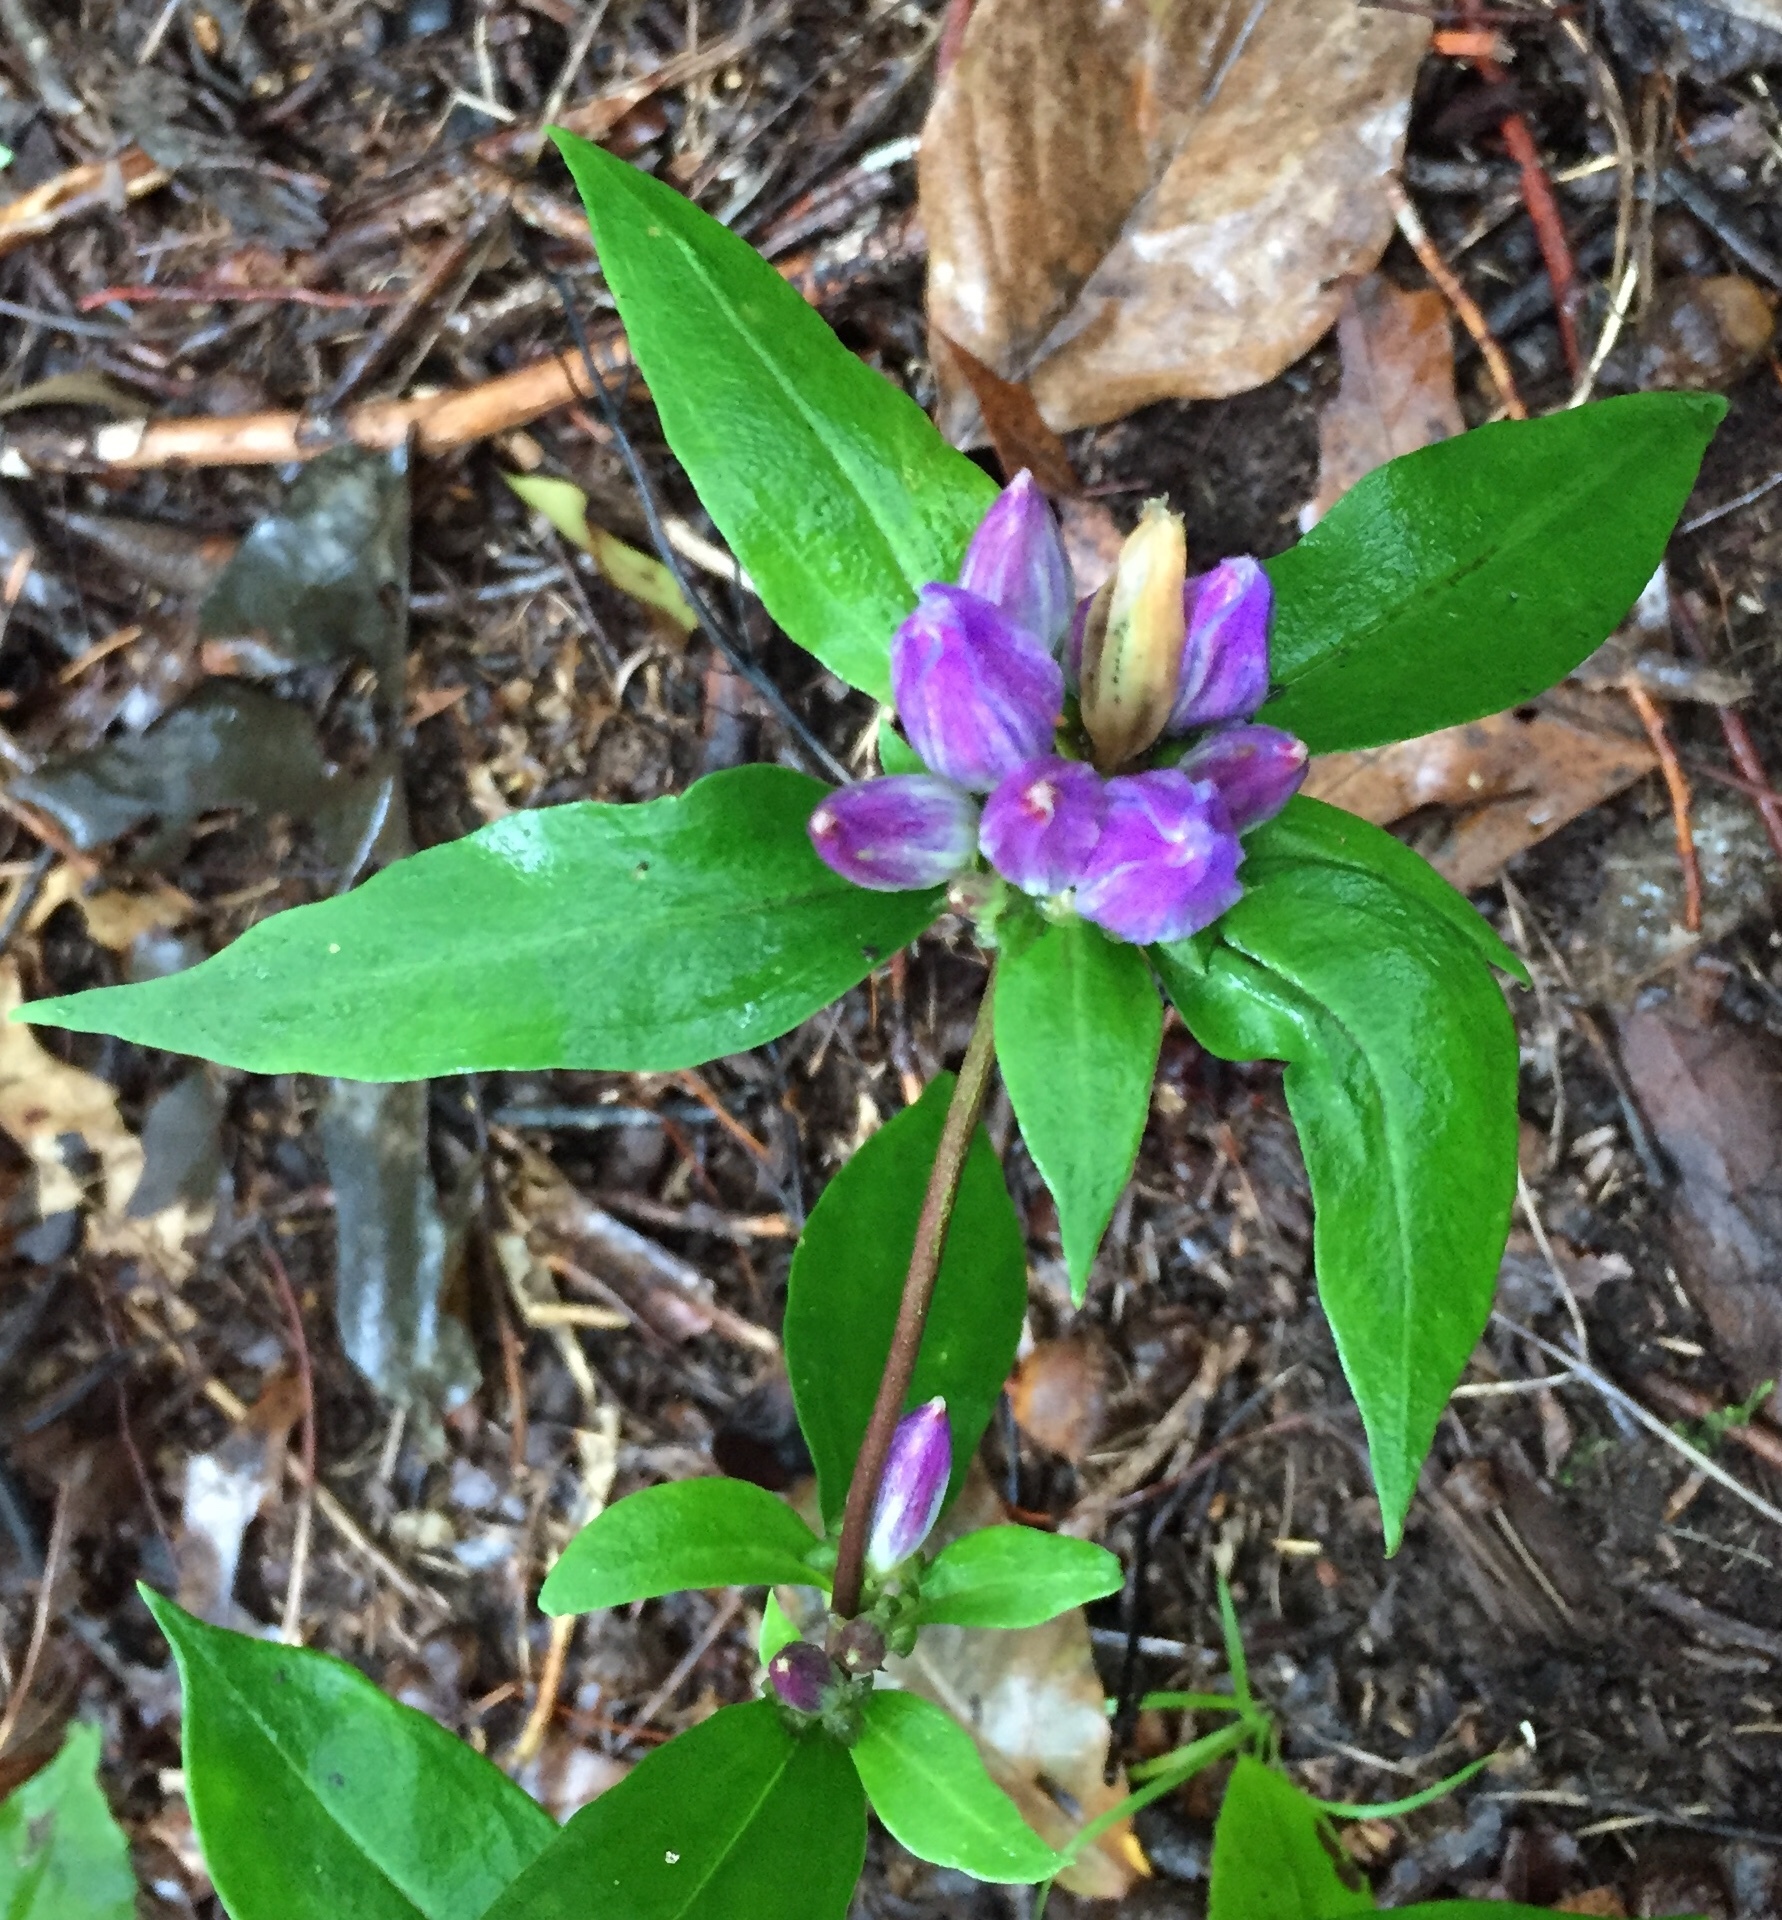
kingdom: Plantae
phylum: Tracheophyta
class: Magnoliopsida
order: Gentianales
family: Gentianaceae
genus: Gentiana
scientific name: Gentiana clausa
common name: Blind gentian
